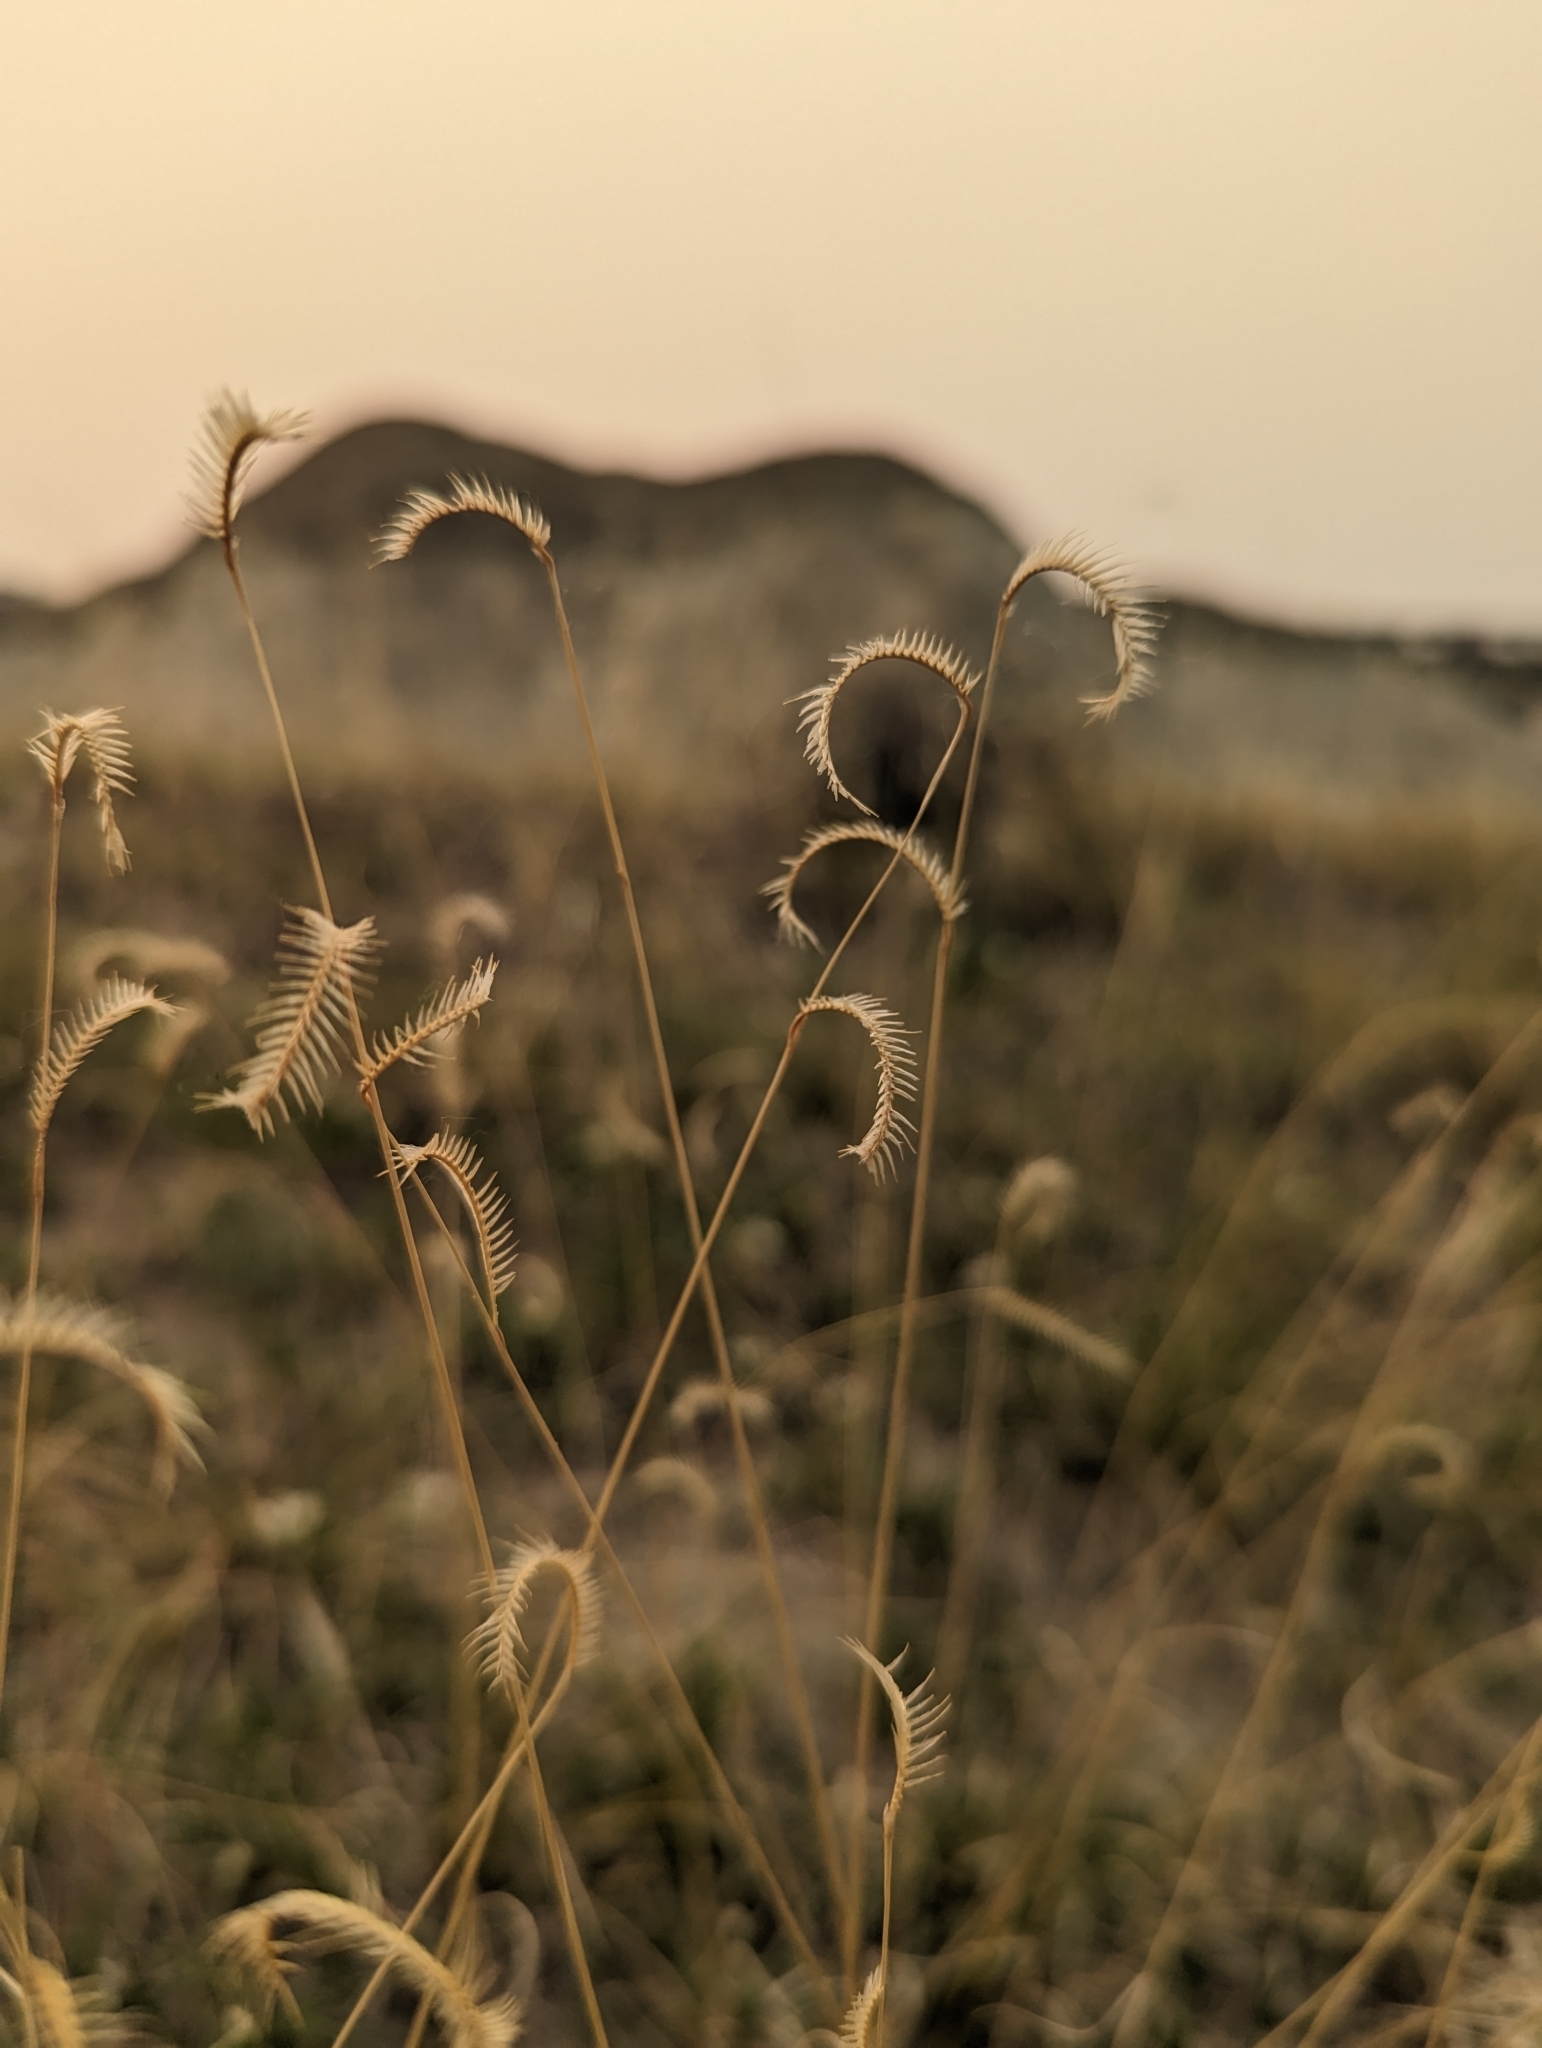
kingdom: Plantae
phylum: Tracheophyta
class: Liliopsida
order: Poales
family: Poaceae
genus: Bouteloua
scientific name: Bouteloua gracilis
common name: Blue grama
